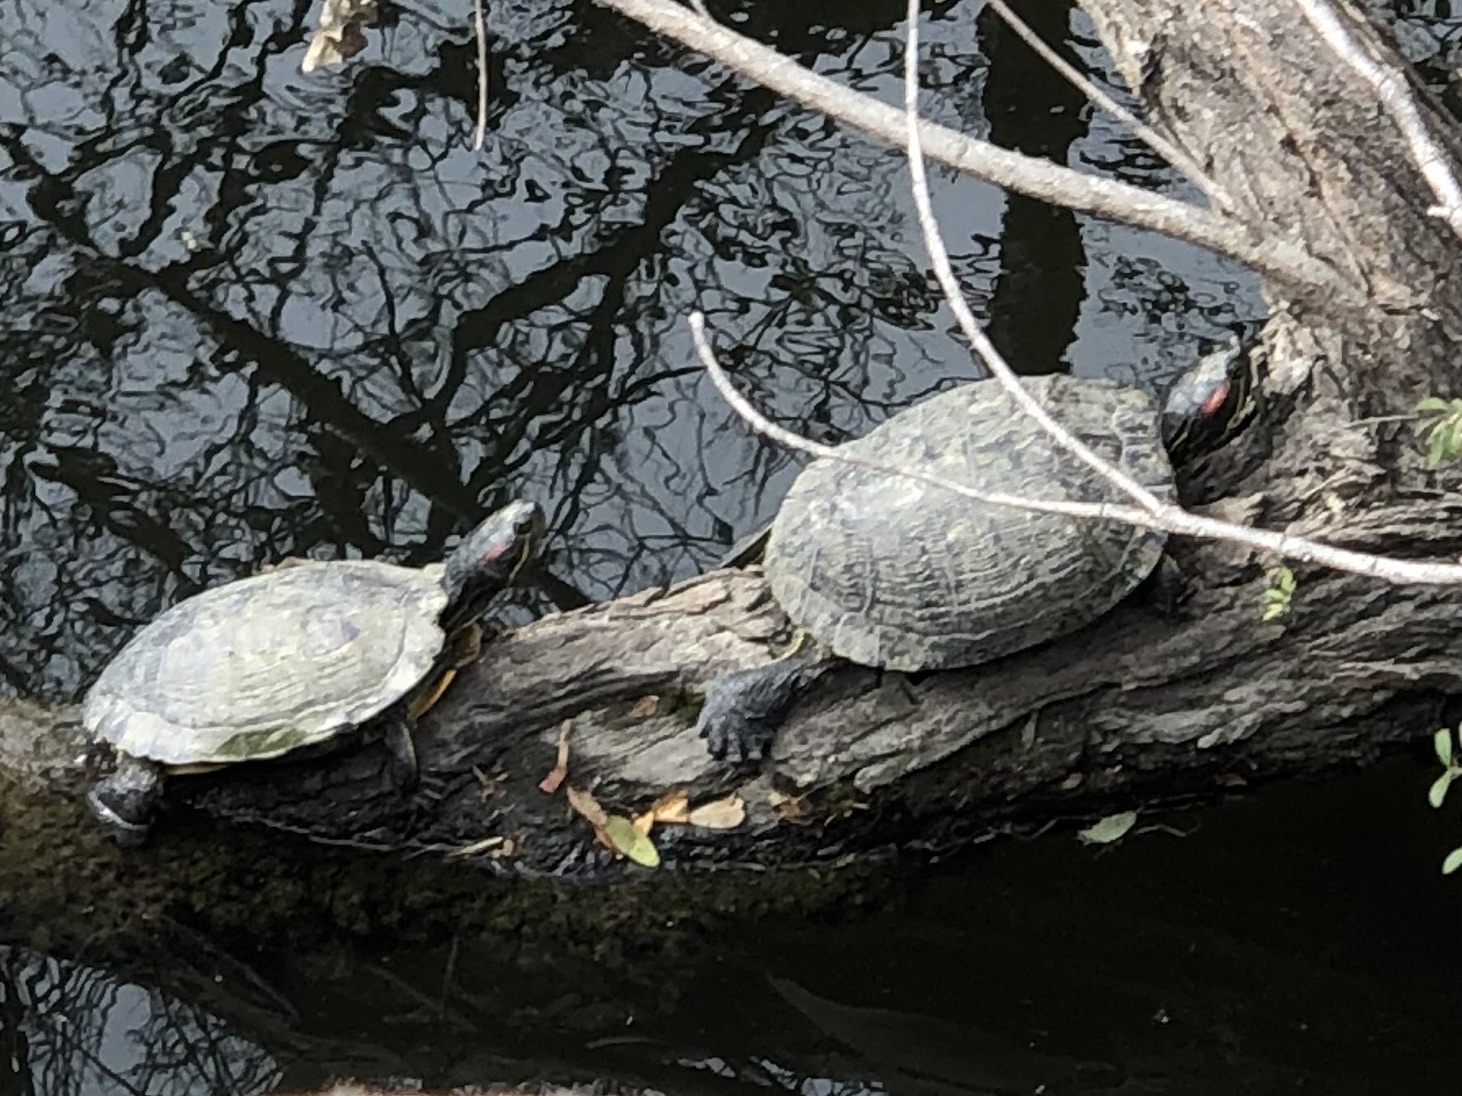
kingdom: Animalia
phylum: Chordata
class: Testudines
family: Emydidae
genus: Trachemys
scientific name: Trachemys scripta
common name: Slider
